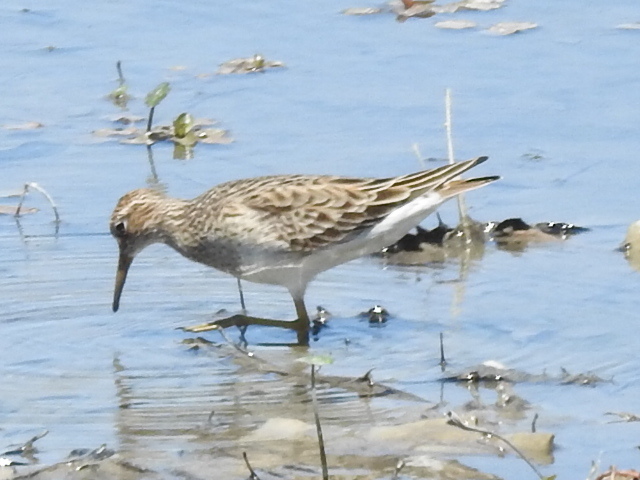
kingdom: Animalia
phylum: Chordata
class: Aves
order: Charadriiformes
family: Scolopacidae
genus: Calidris
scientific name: Calidris melanotos
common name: Pectoral sandpiper
